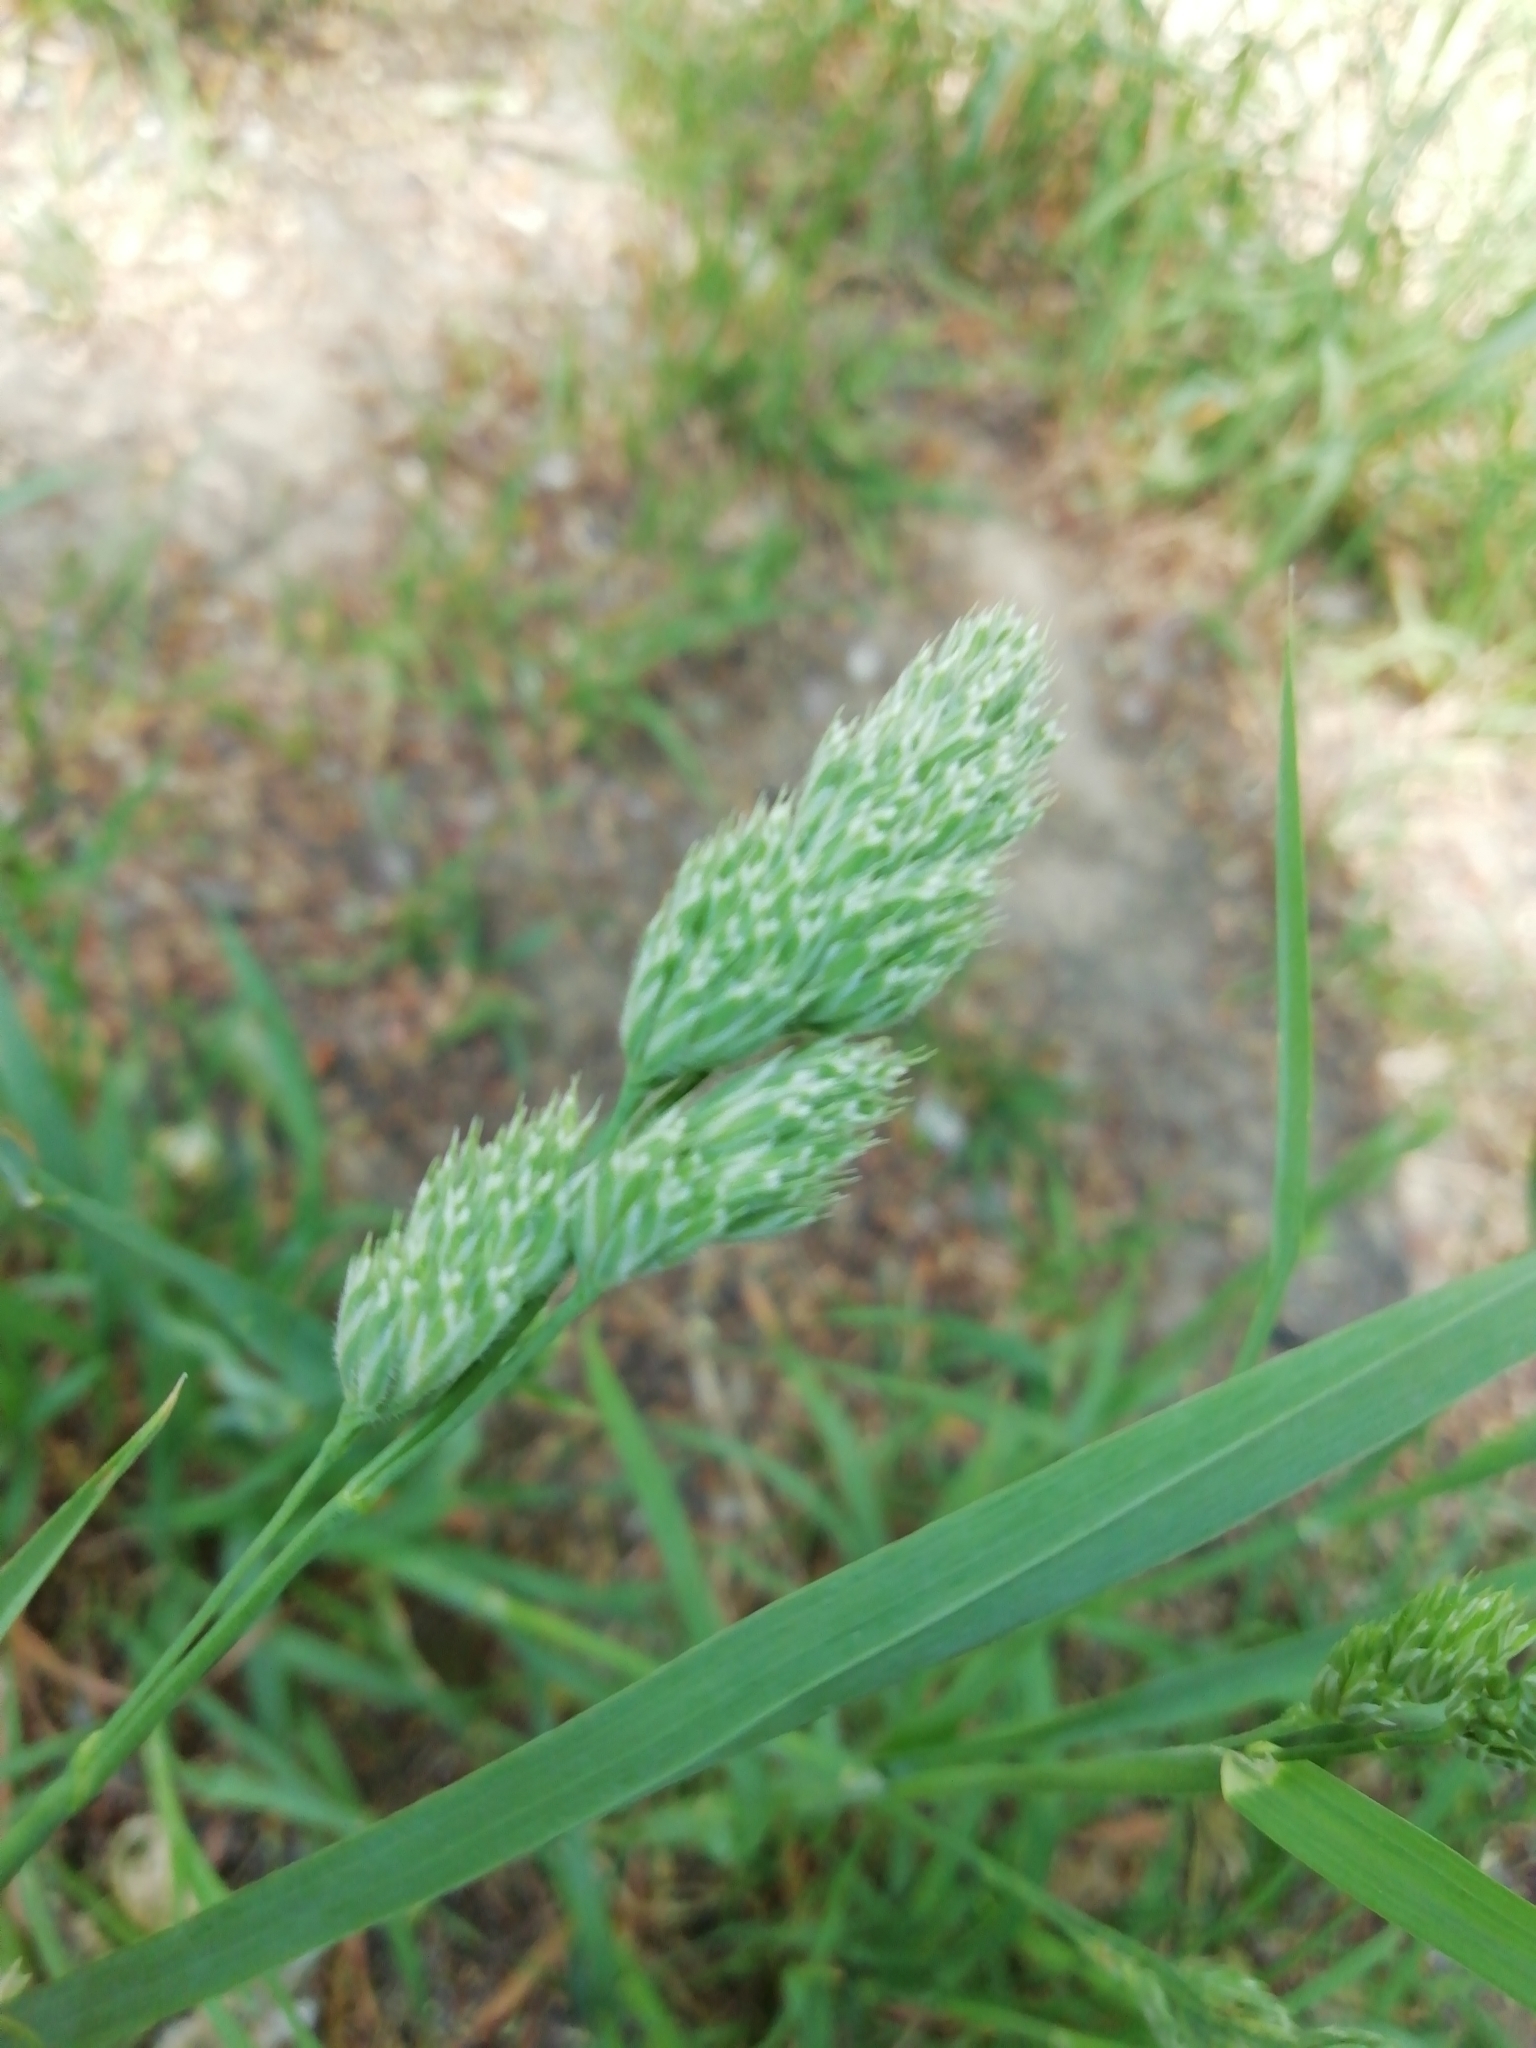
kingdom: Plantae
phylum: Tracheophyta
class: Liliopsida
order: Poales
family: Poaceae
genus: Dactylis
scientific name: Dactylis glomerata
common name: Orchardgrass
